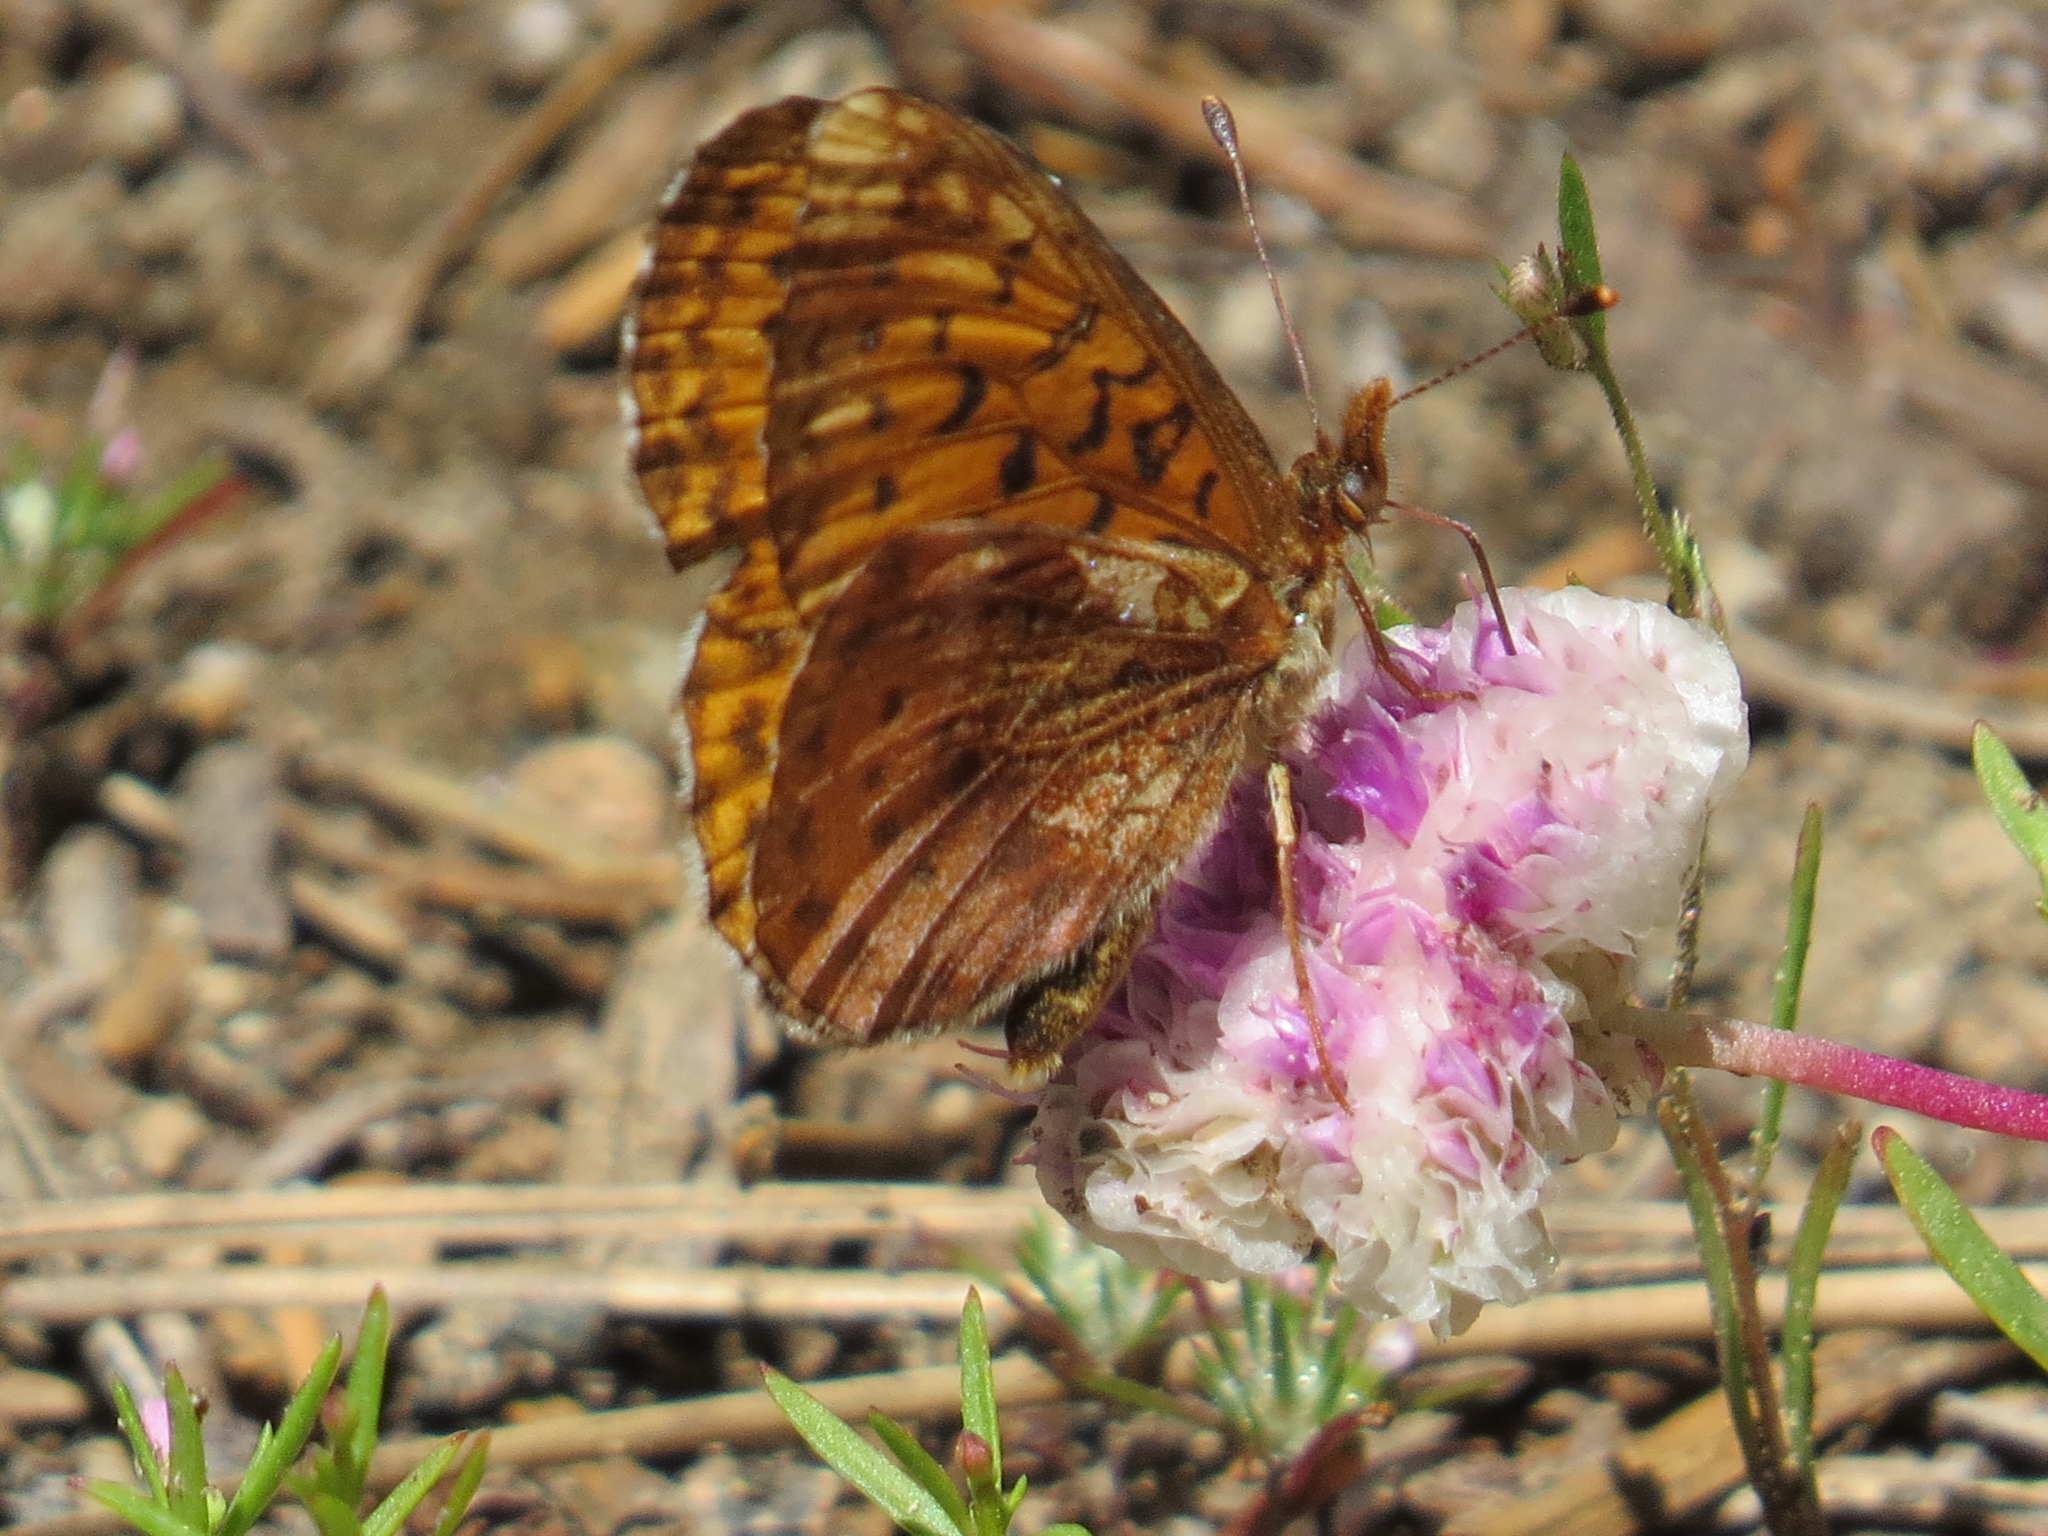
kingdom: Animalia
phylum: Arthropoda
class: Insecta
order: Lepidoptera
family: Nymphalidae
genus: Boloria
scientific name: Boloria epithore
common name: Pacific fritillary
